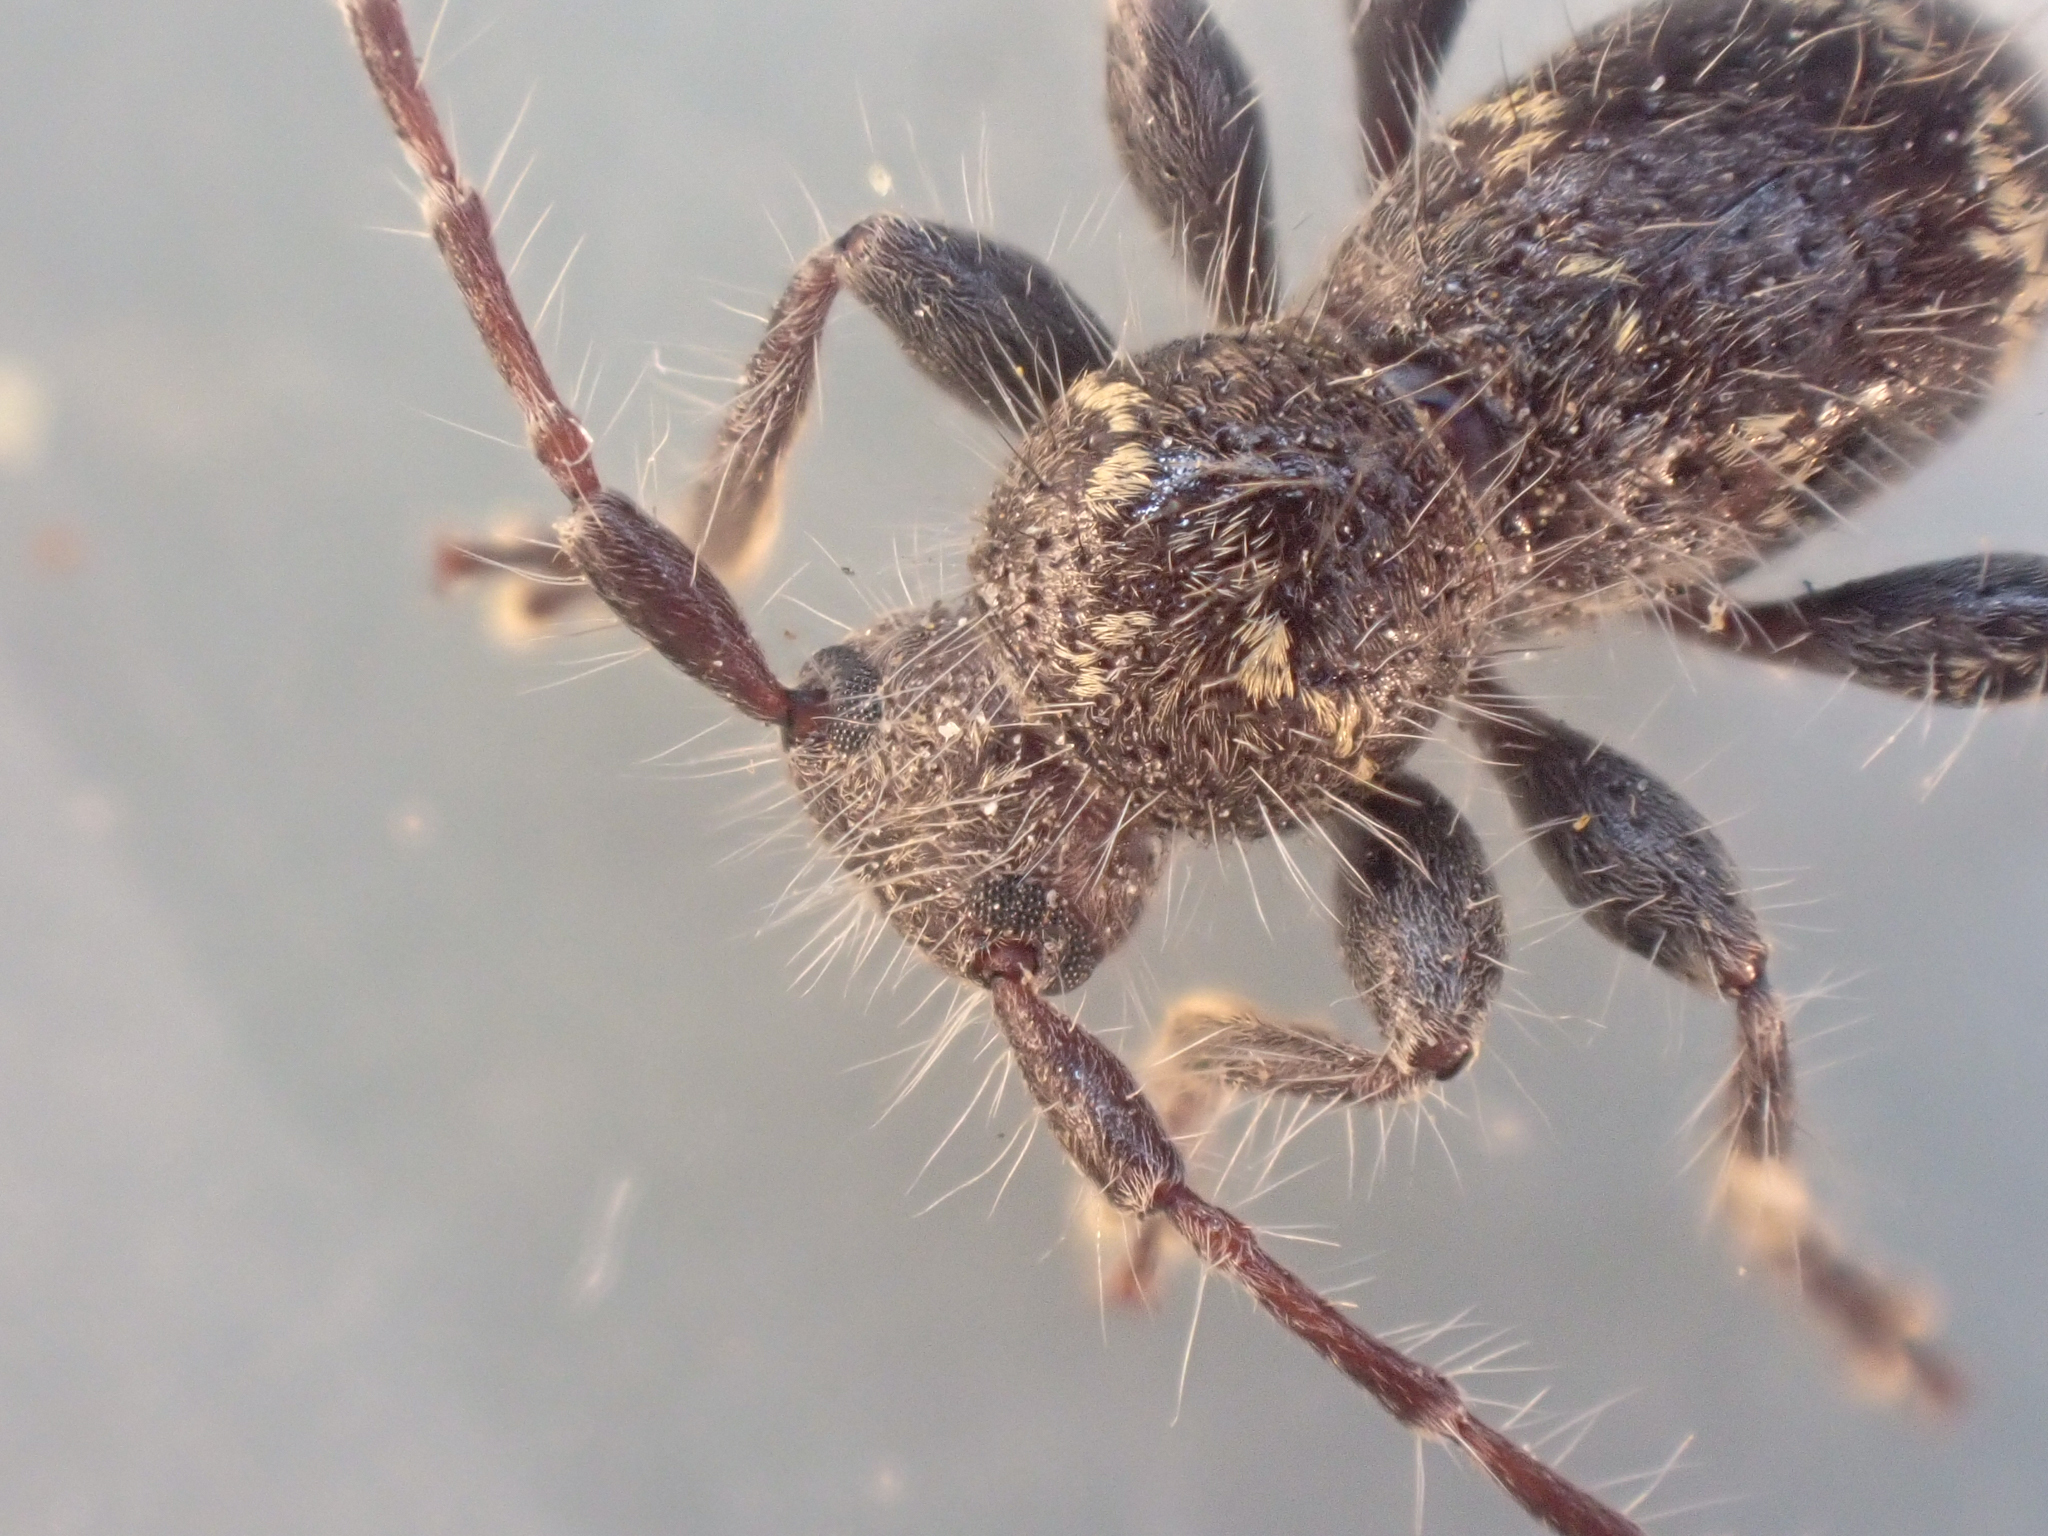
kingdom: Animalia
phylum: Arthropoda
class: Insecta
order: Coleoptera
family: Cerambycidae
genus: Ipochus
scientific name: Ipochus fasciatus
